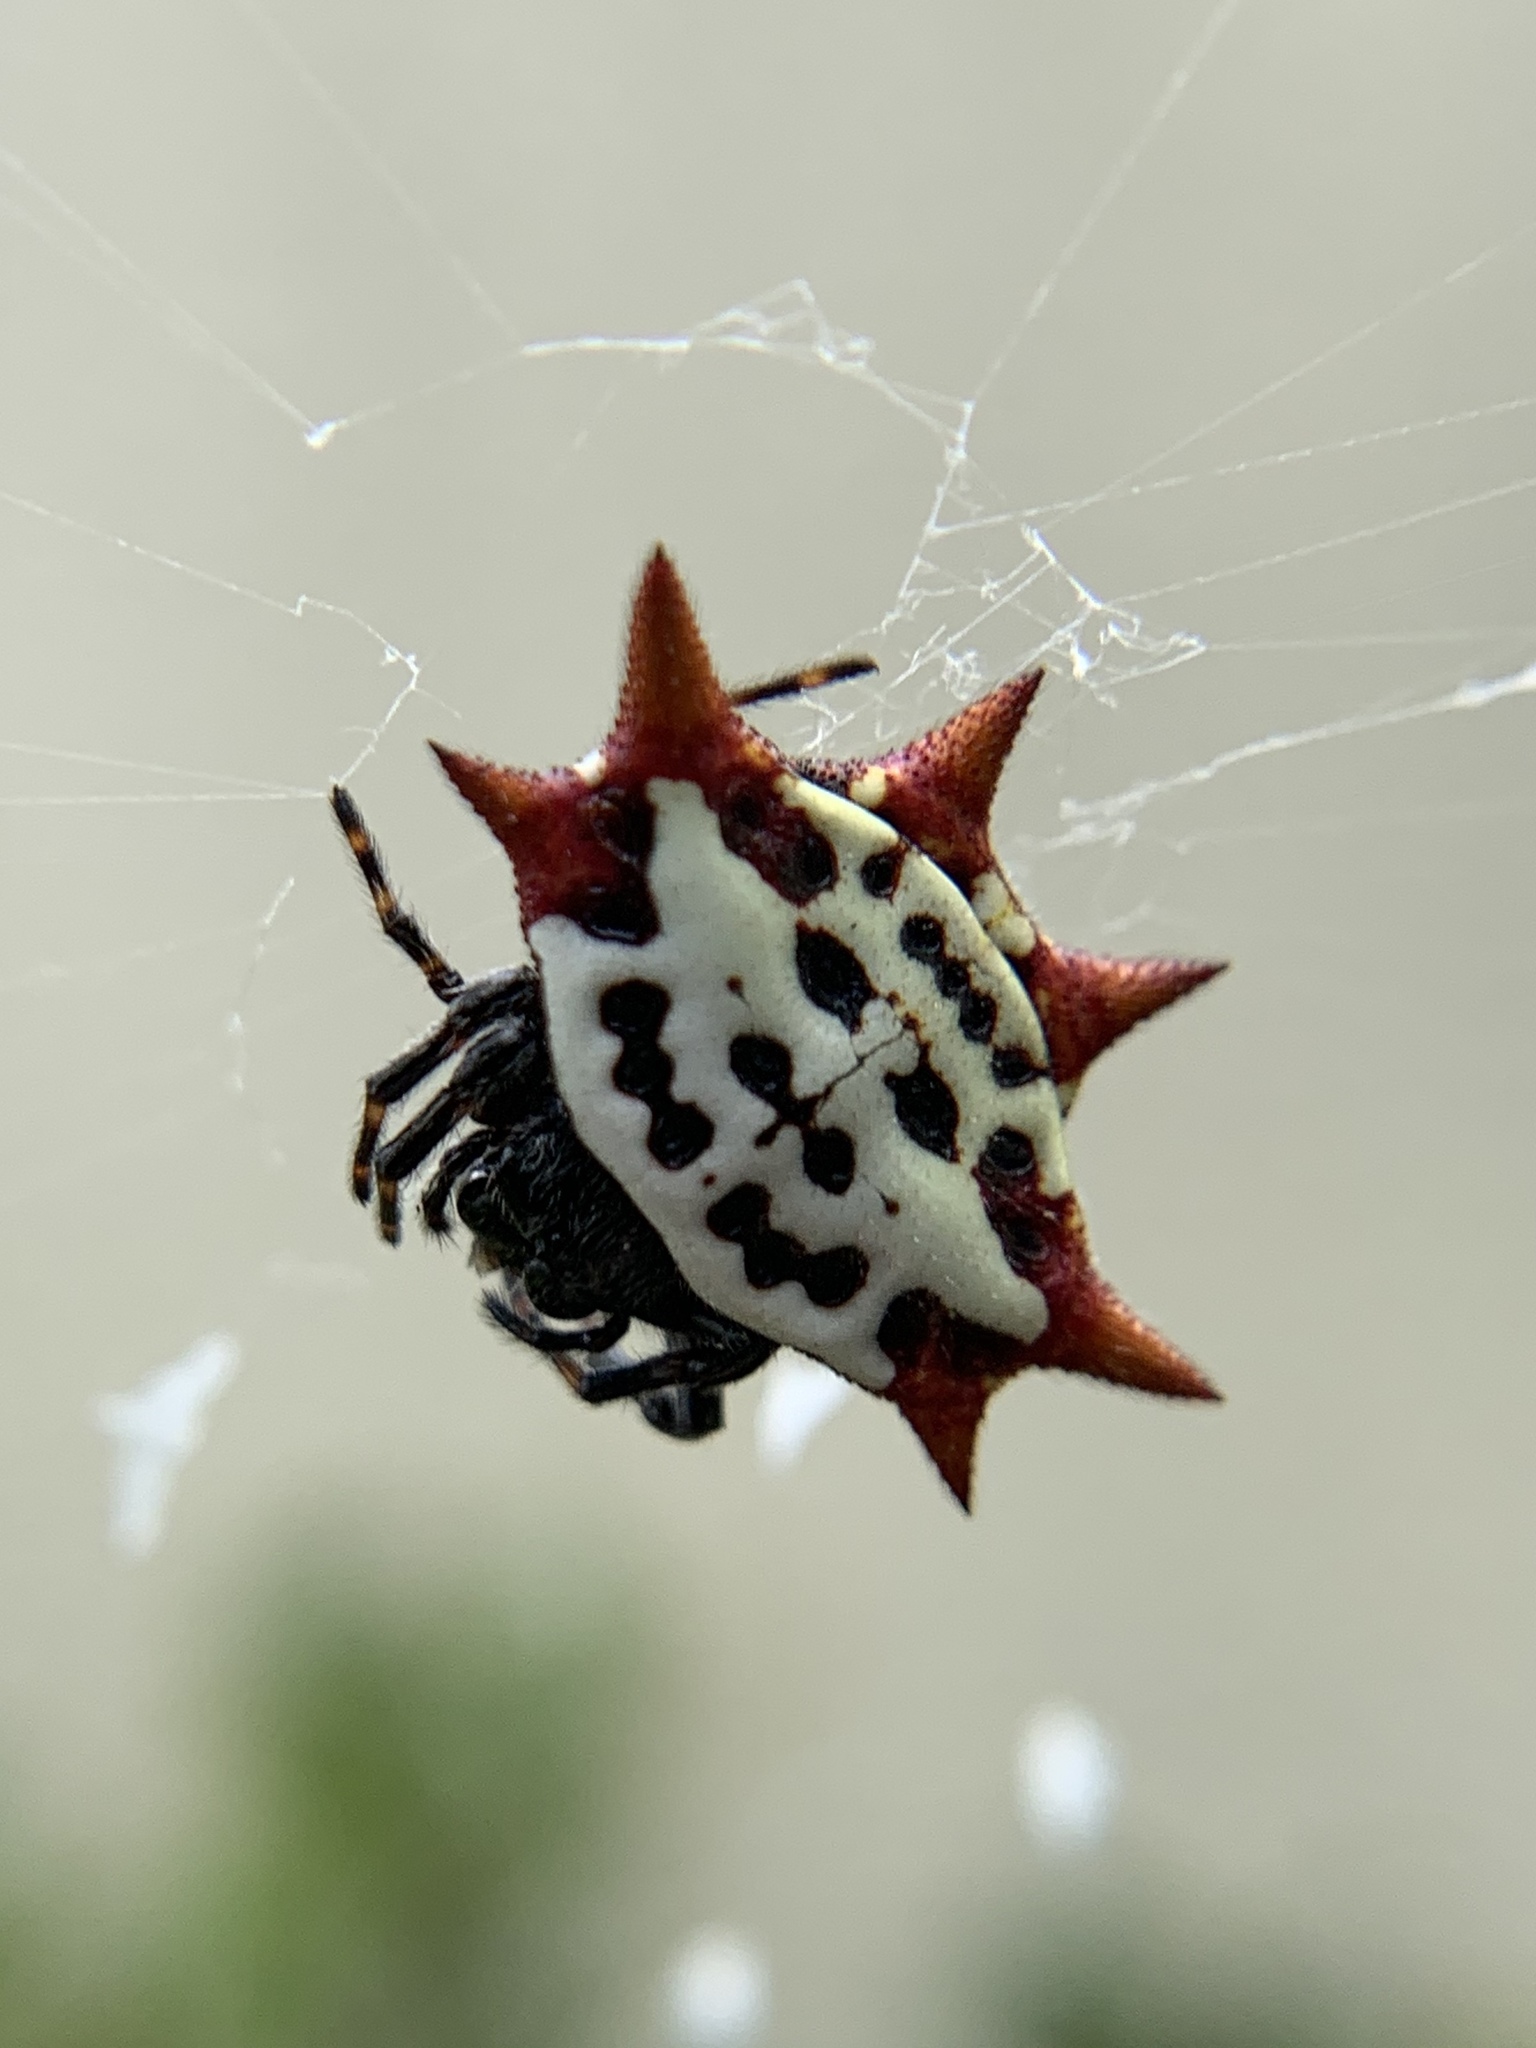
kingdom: Animalia
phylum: Arthropoda
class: Arachnida
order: Araneae
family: Araneidae
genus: Gasteracantha
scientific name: Gasteracantha cancriformis
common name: Orb weavers
